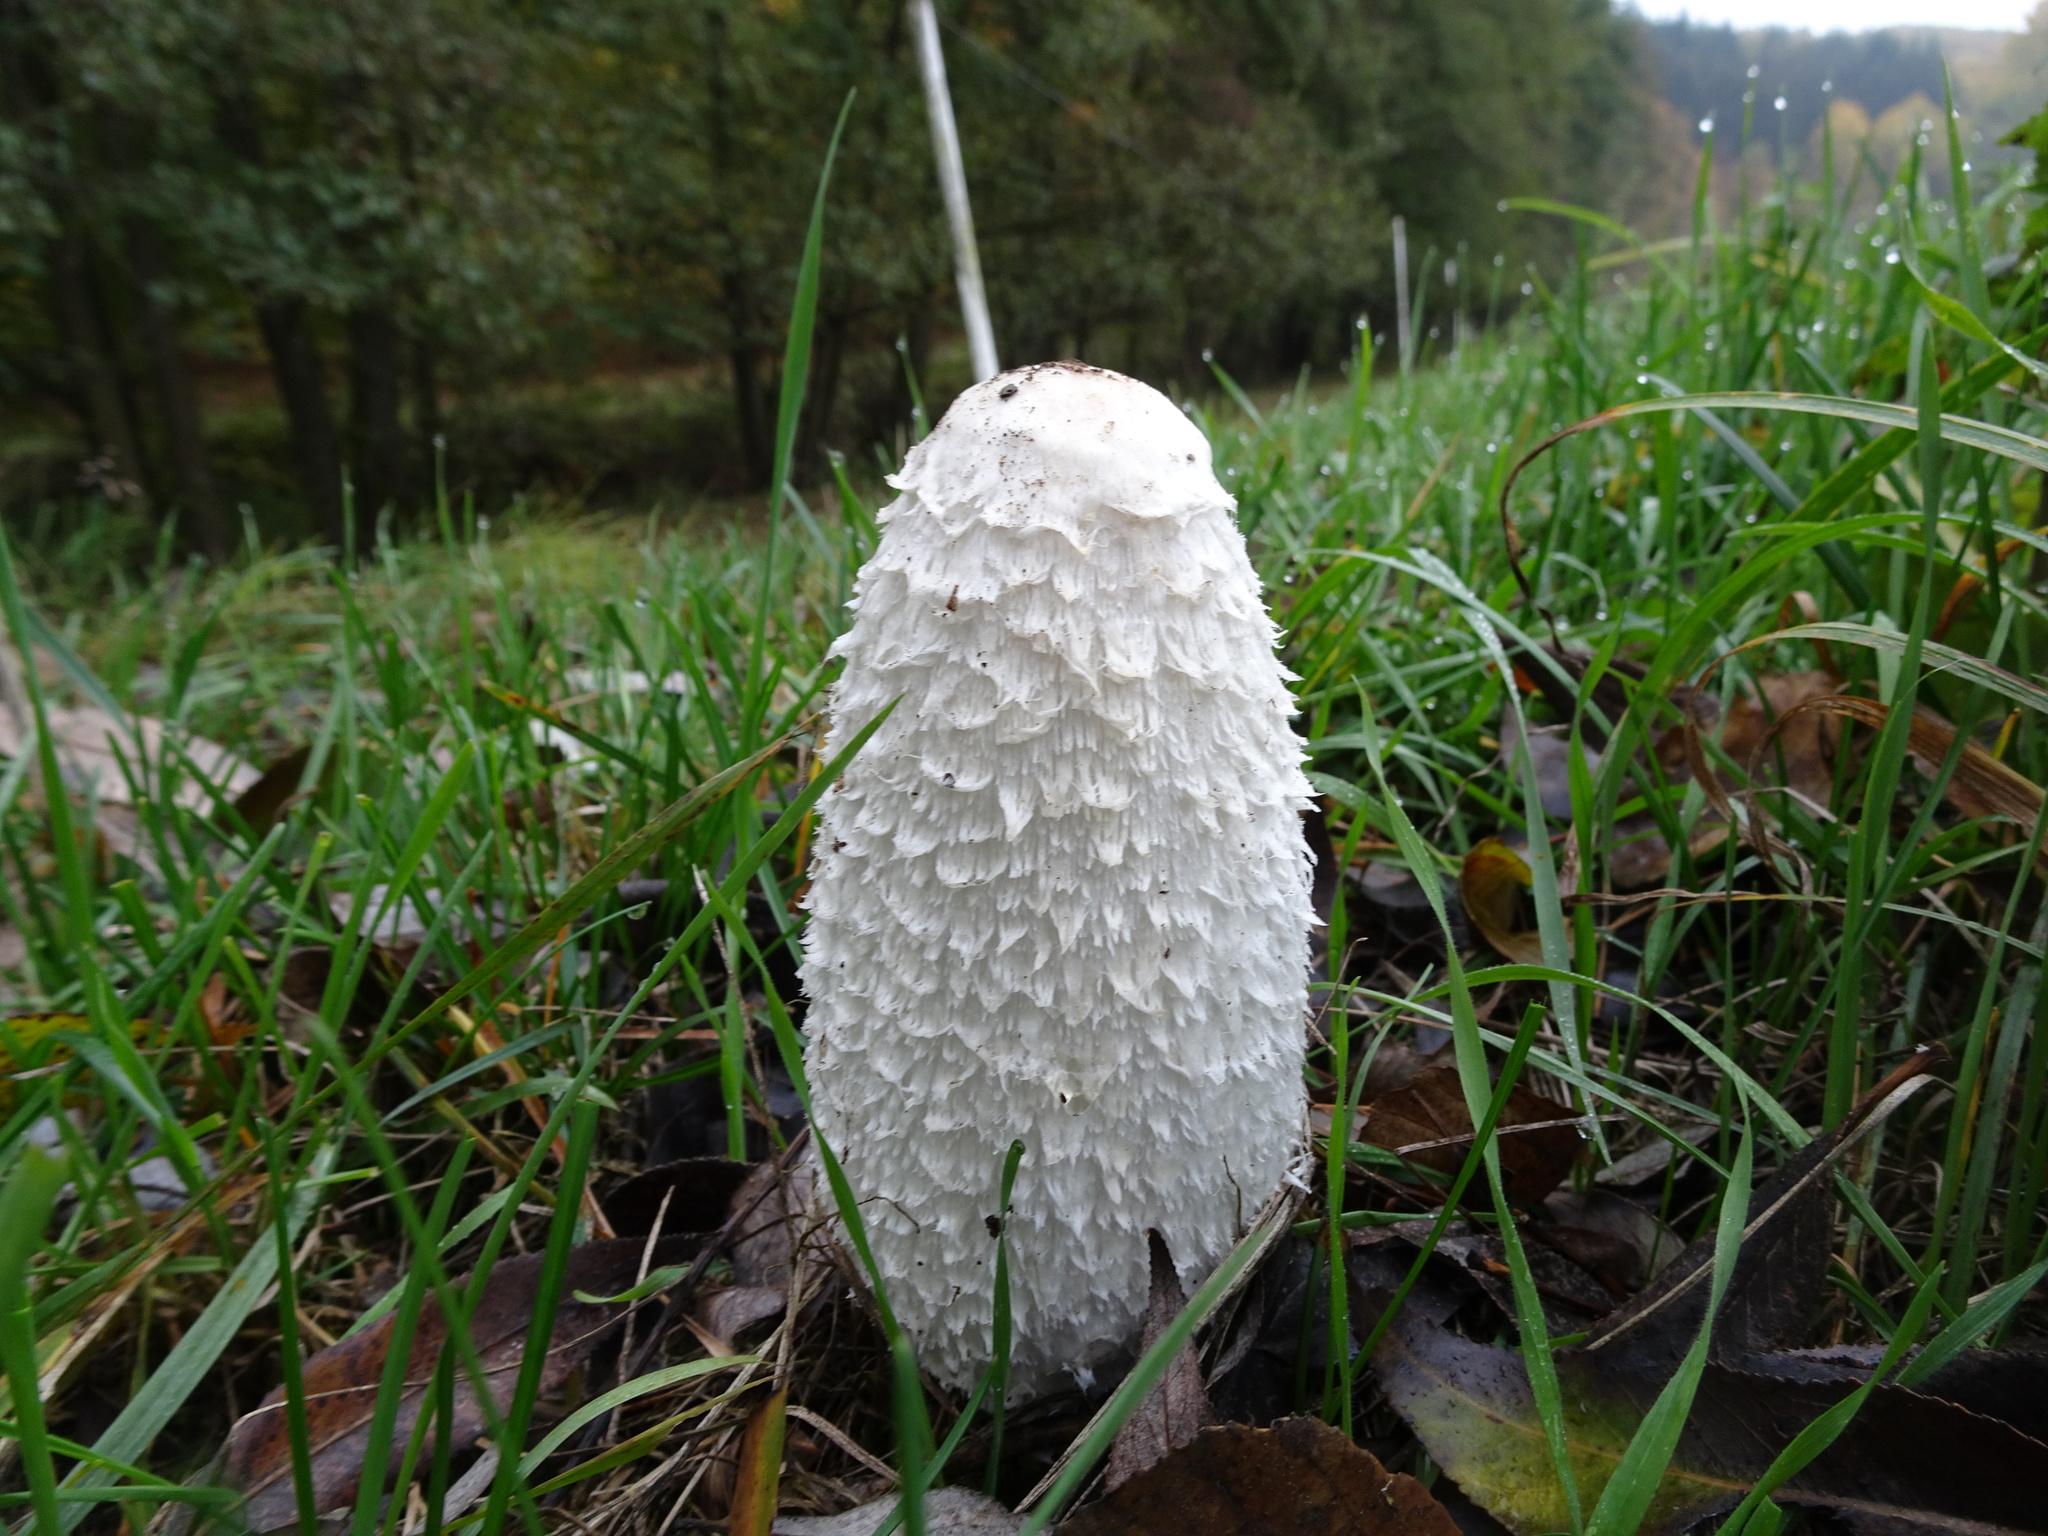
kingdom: Fungi
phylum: Basidiomycota
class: Agaricomycetes
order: Agaricales
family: Agaricaceae
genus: Coprinus
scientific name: Coprinus comatus
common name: Lawyer's wig
